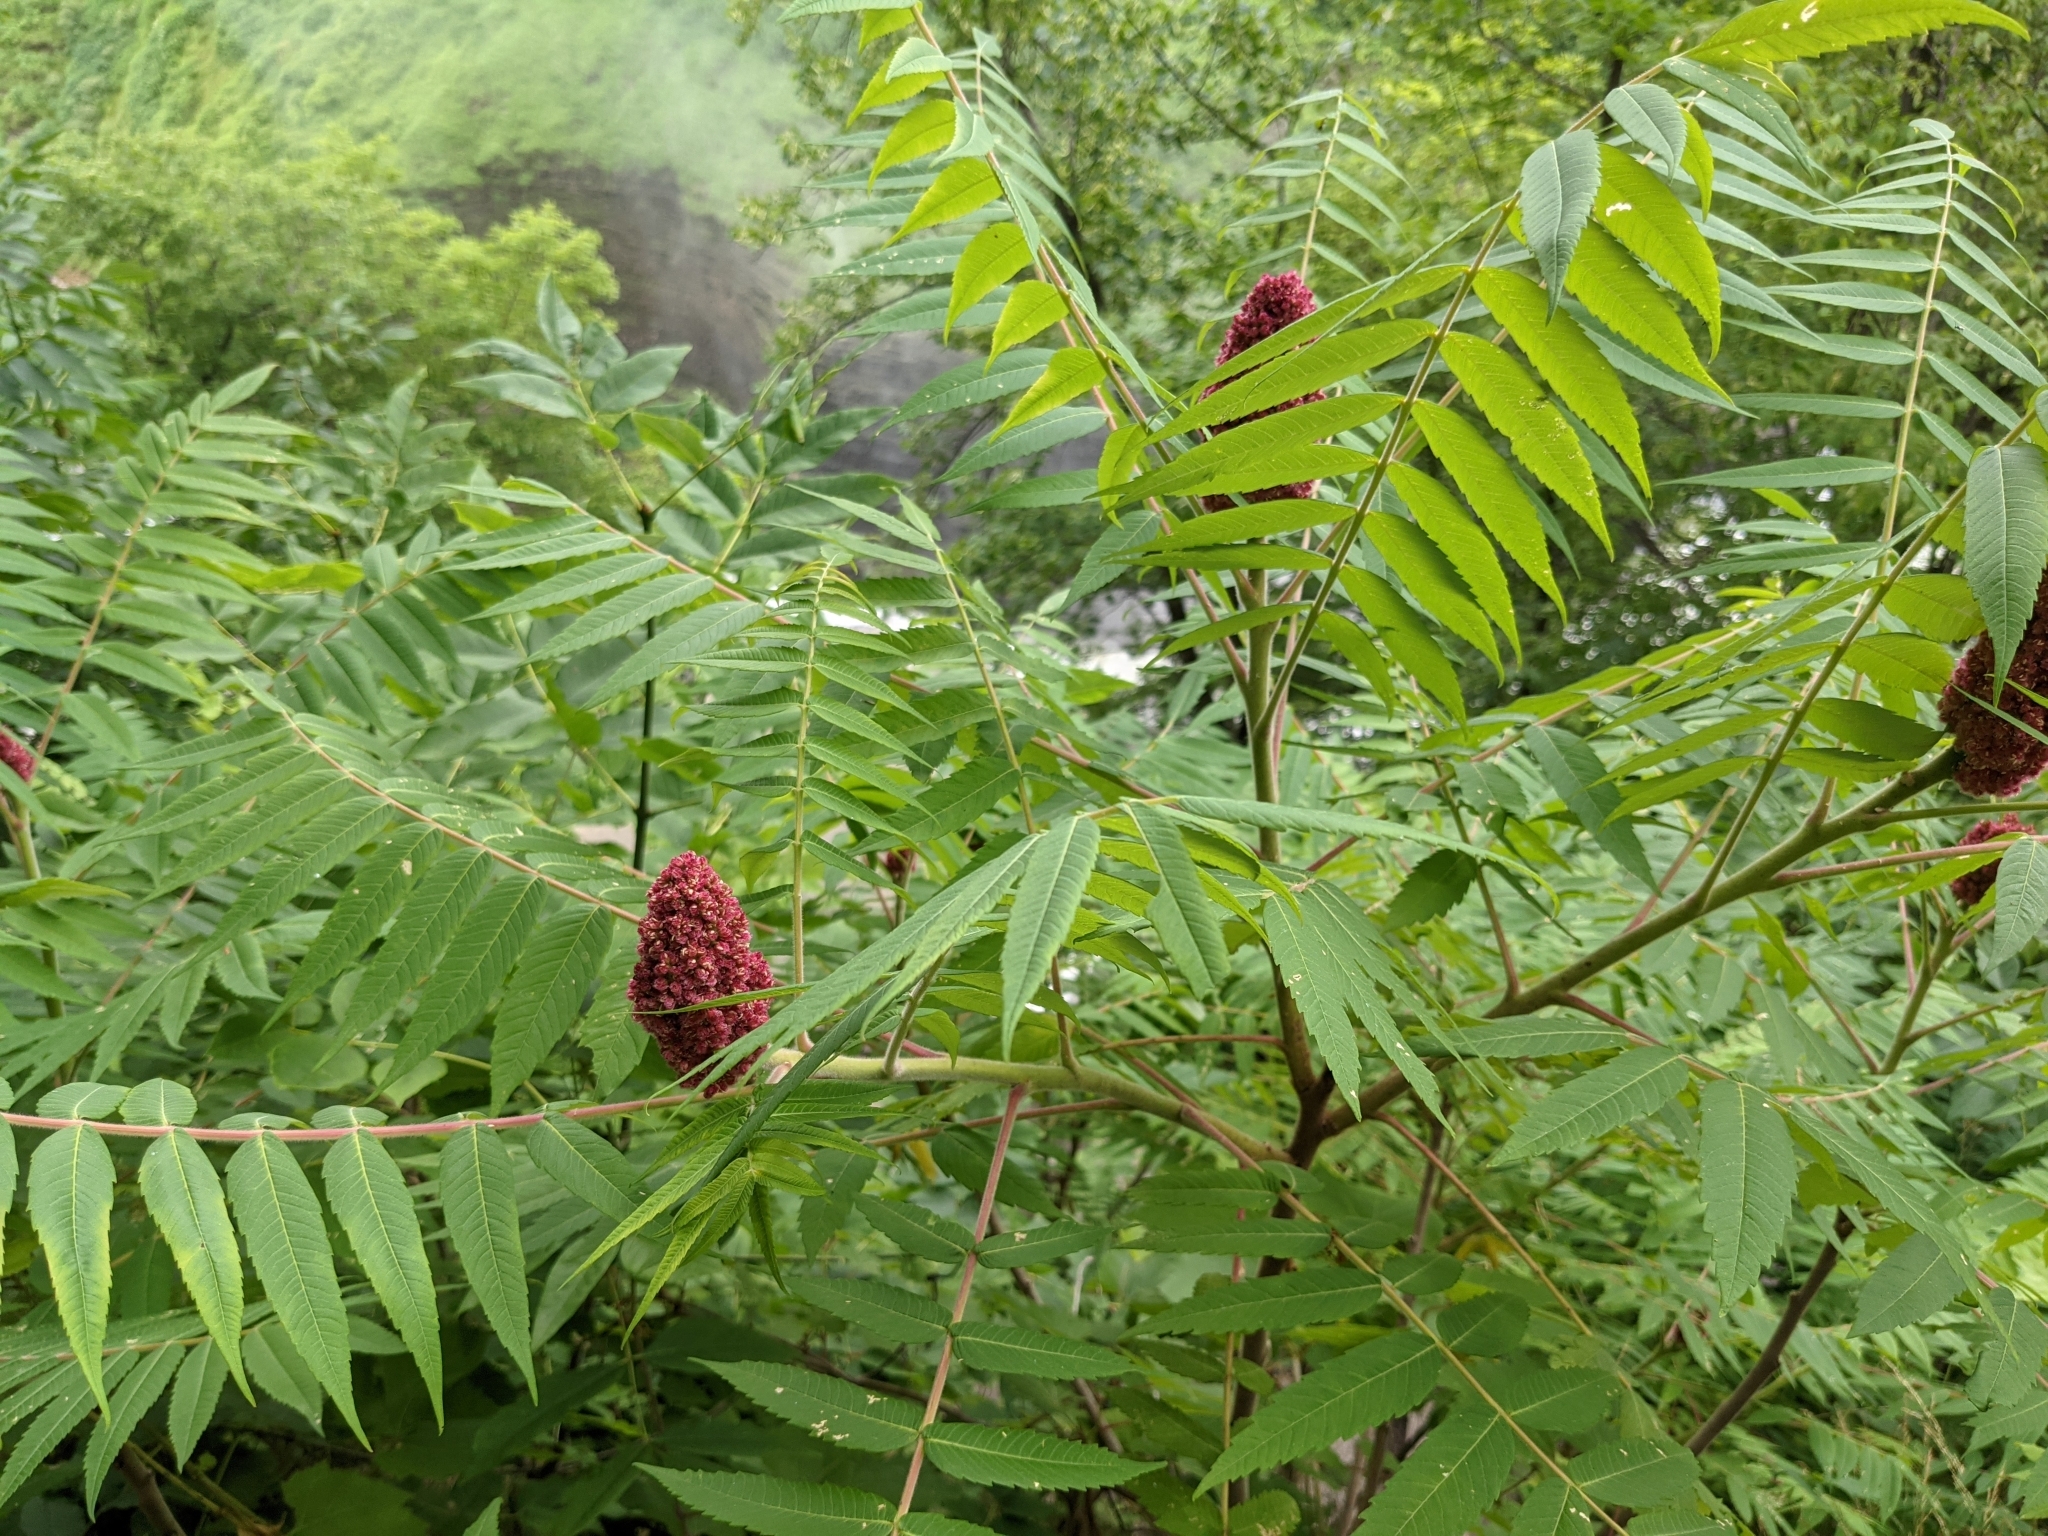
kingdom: Plantae
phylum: Tracheophyta
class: Magnoliopsida
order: Sapindales
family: Anacardiaceae
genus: Rhus
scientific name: Rhus typhina
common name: Staghorn sumac
